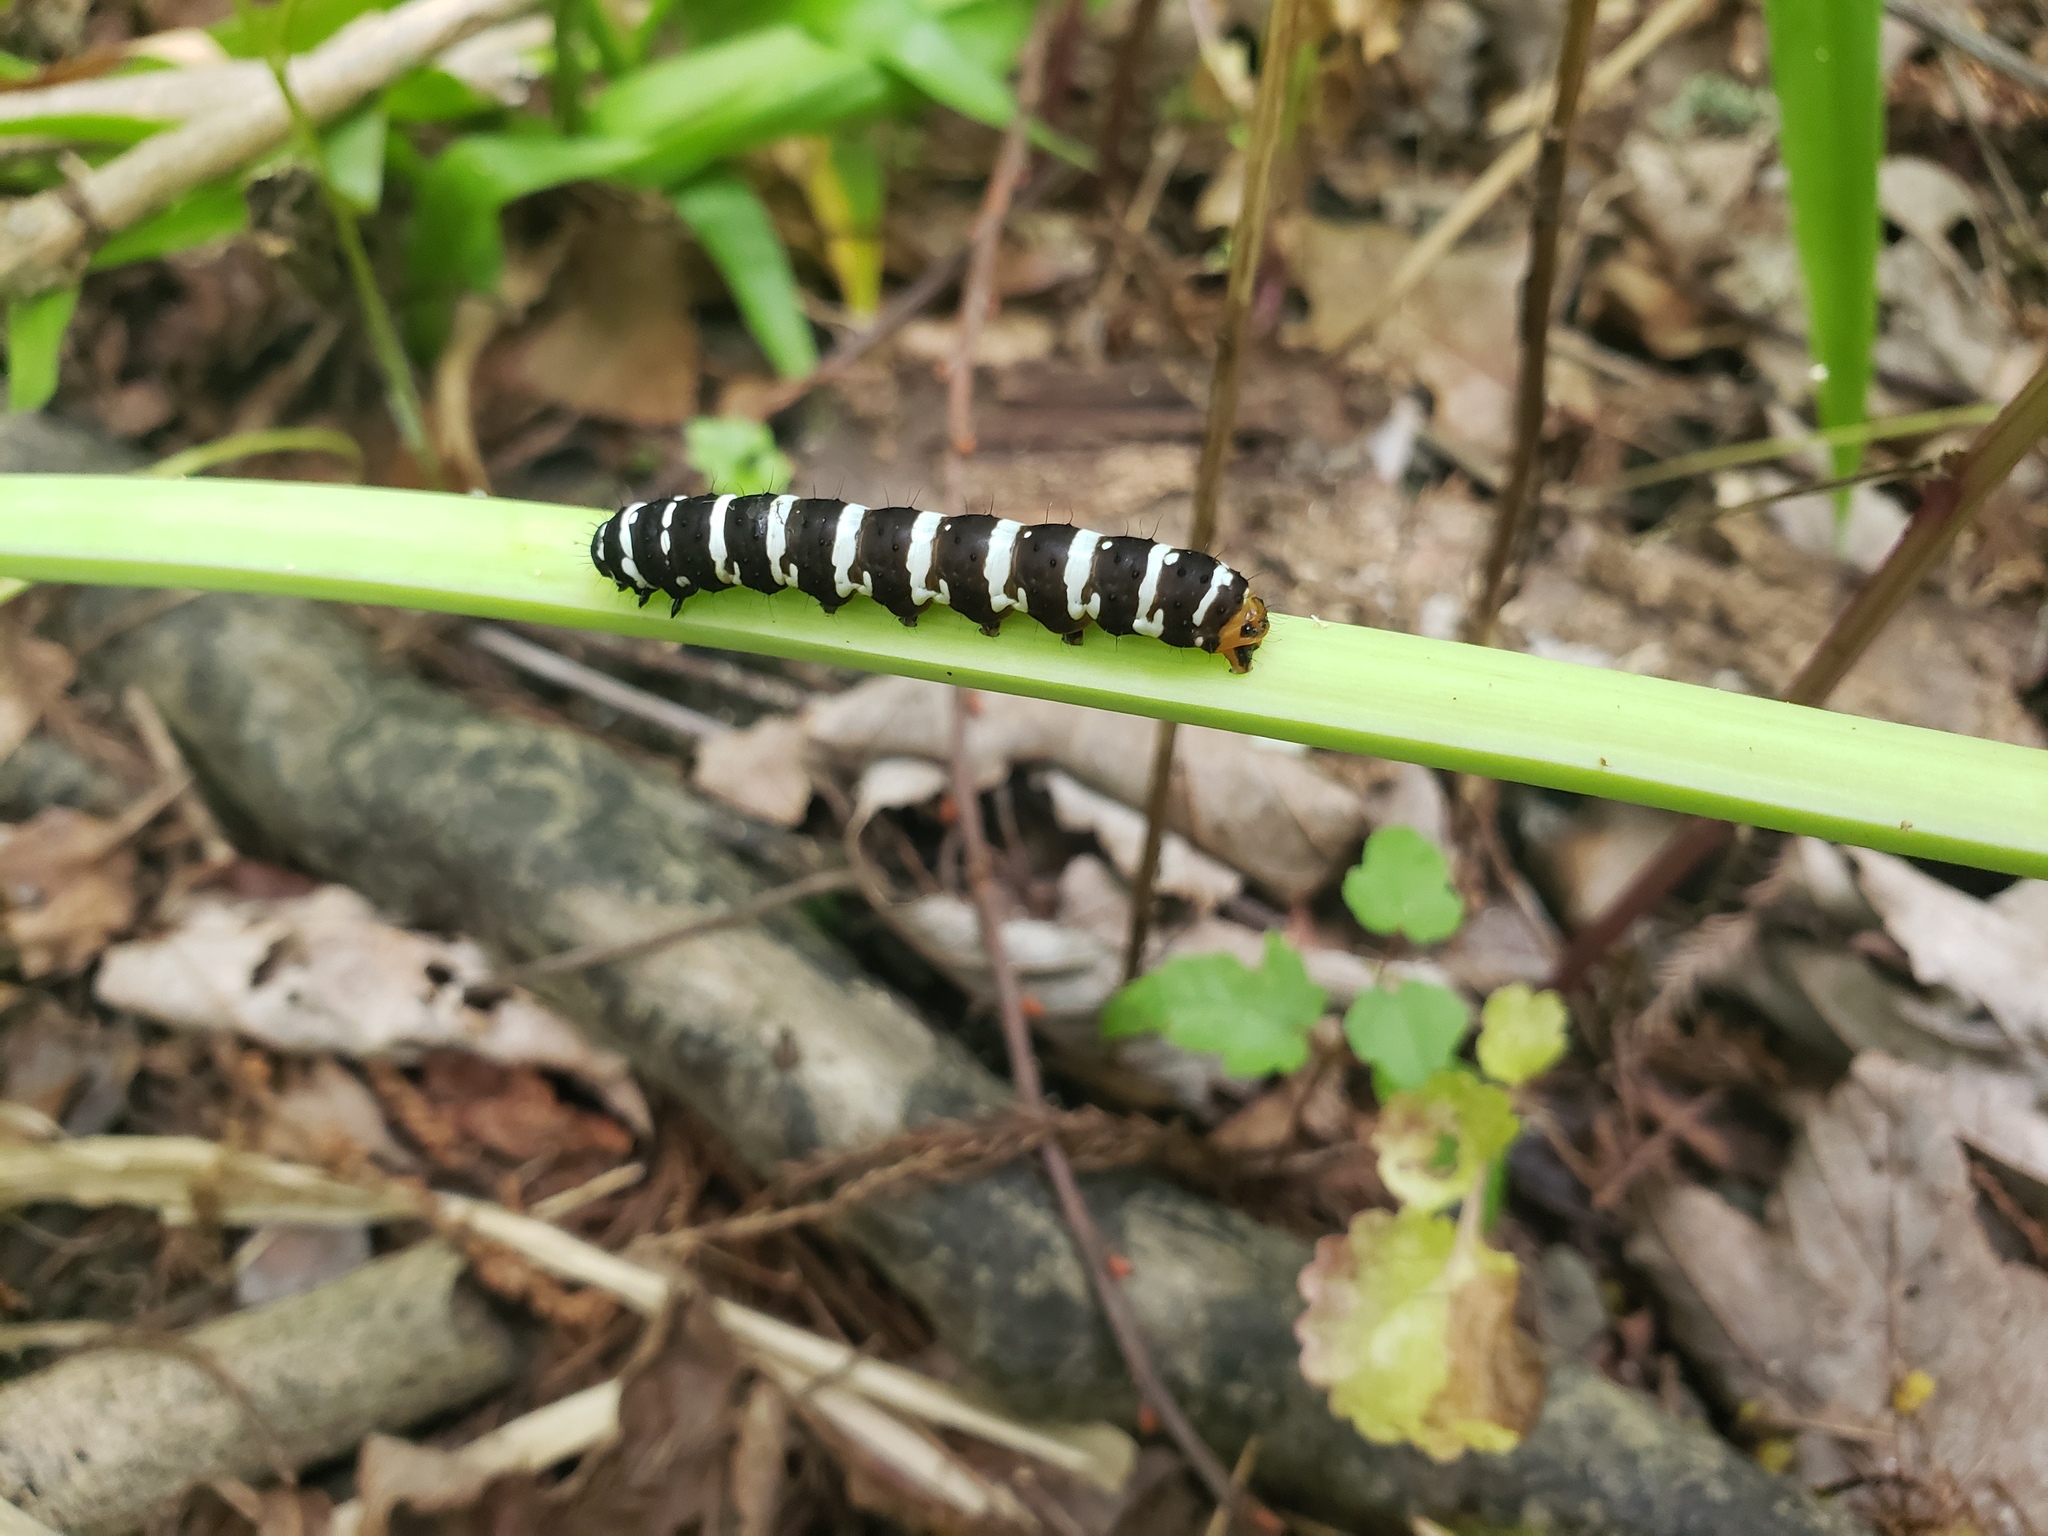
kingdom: Animalia
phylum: Arthropoda
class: Insecta
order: Lepidoptera
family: Noctuidae
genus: Xanthopastis
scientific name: Xanthopastis regnatrix
